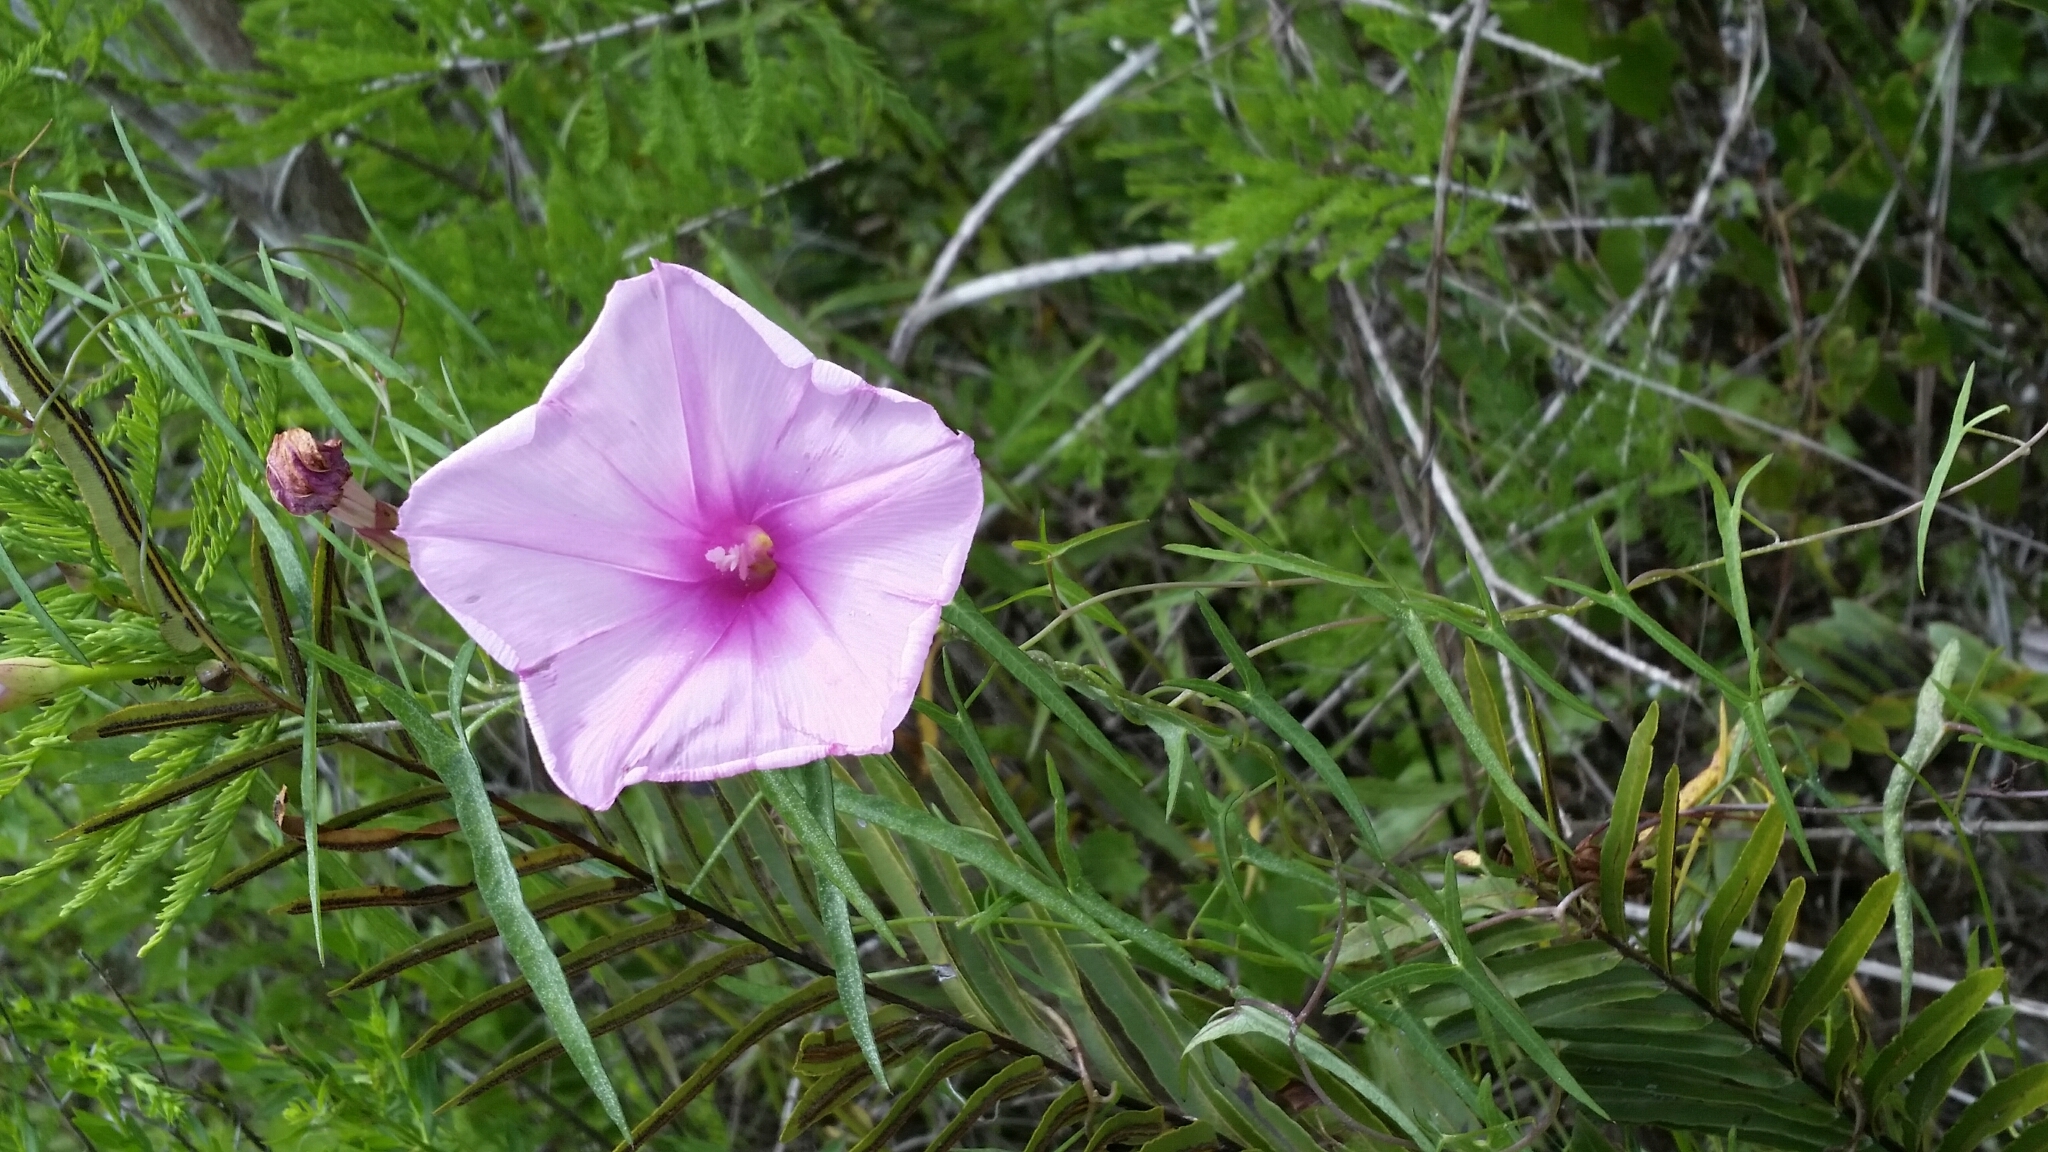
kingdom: Plantae
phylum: Tracheophyta
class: Magnoliopsida
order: Solanales
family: Convolvulaceae
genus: Ipomoea
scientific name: Ipomoea sagittata
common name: Saltmarsh morning glory
